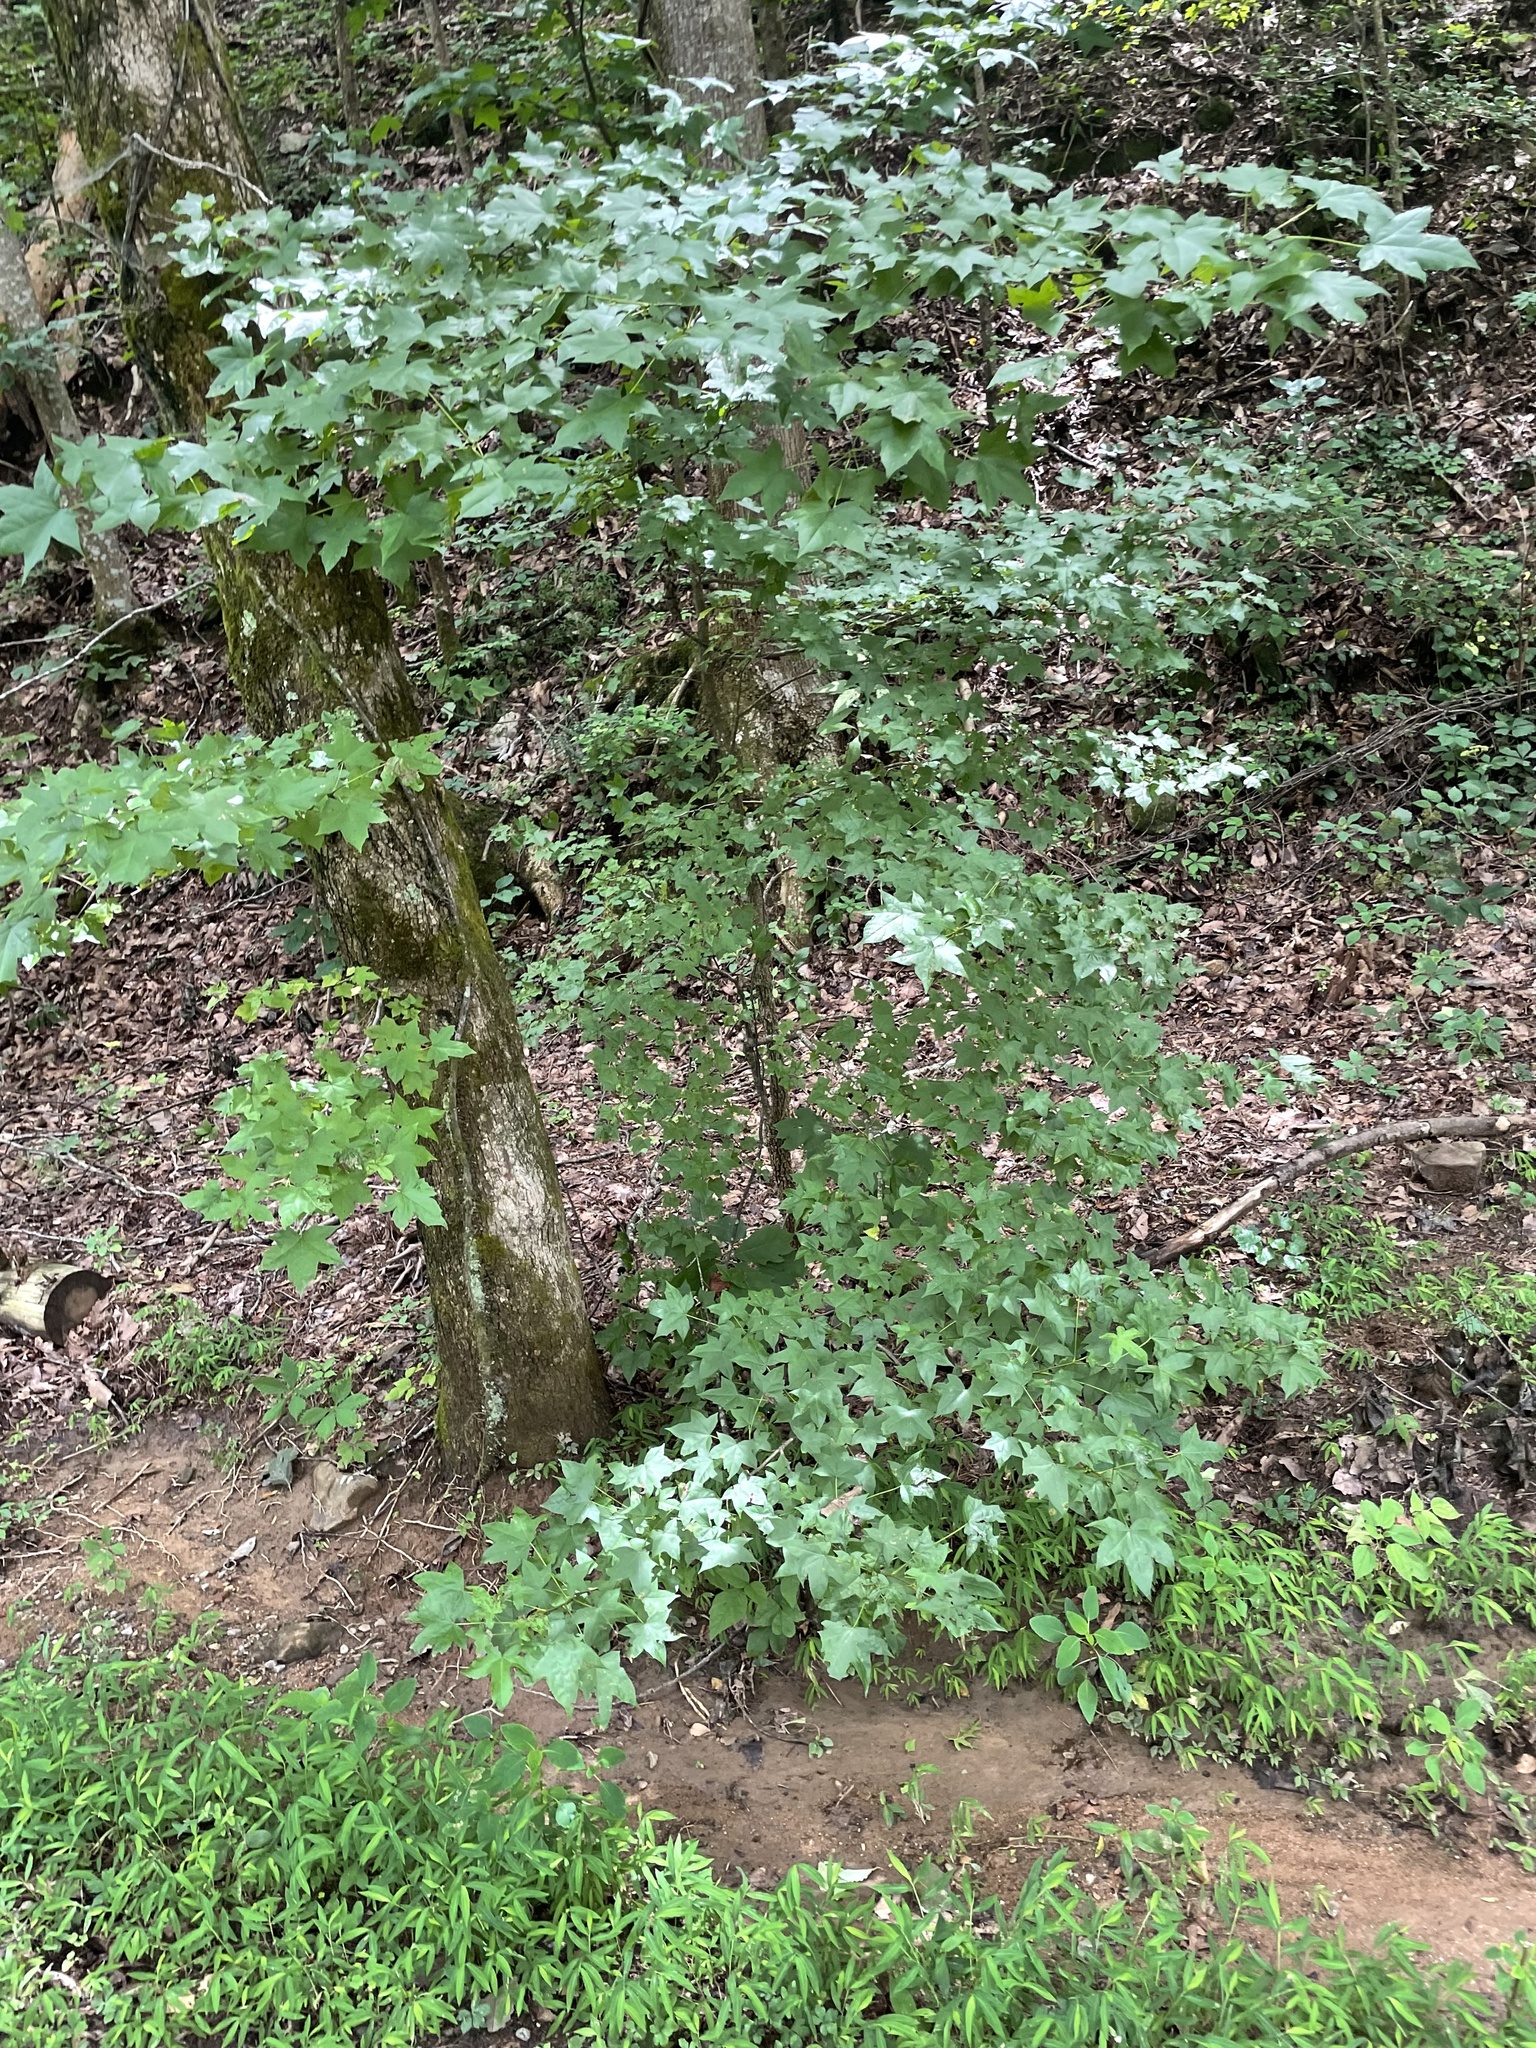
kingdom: Plantae
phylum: Tracheophyta
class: Magnoliopsida
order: Saxifragales
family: Altingiaceae
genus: Liquidambar
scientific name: Liquidambar styraciflua
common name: Sweet gum
